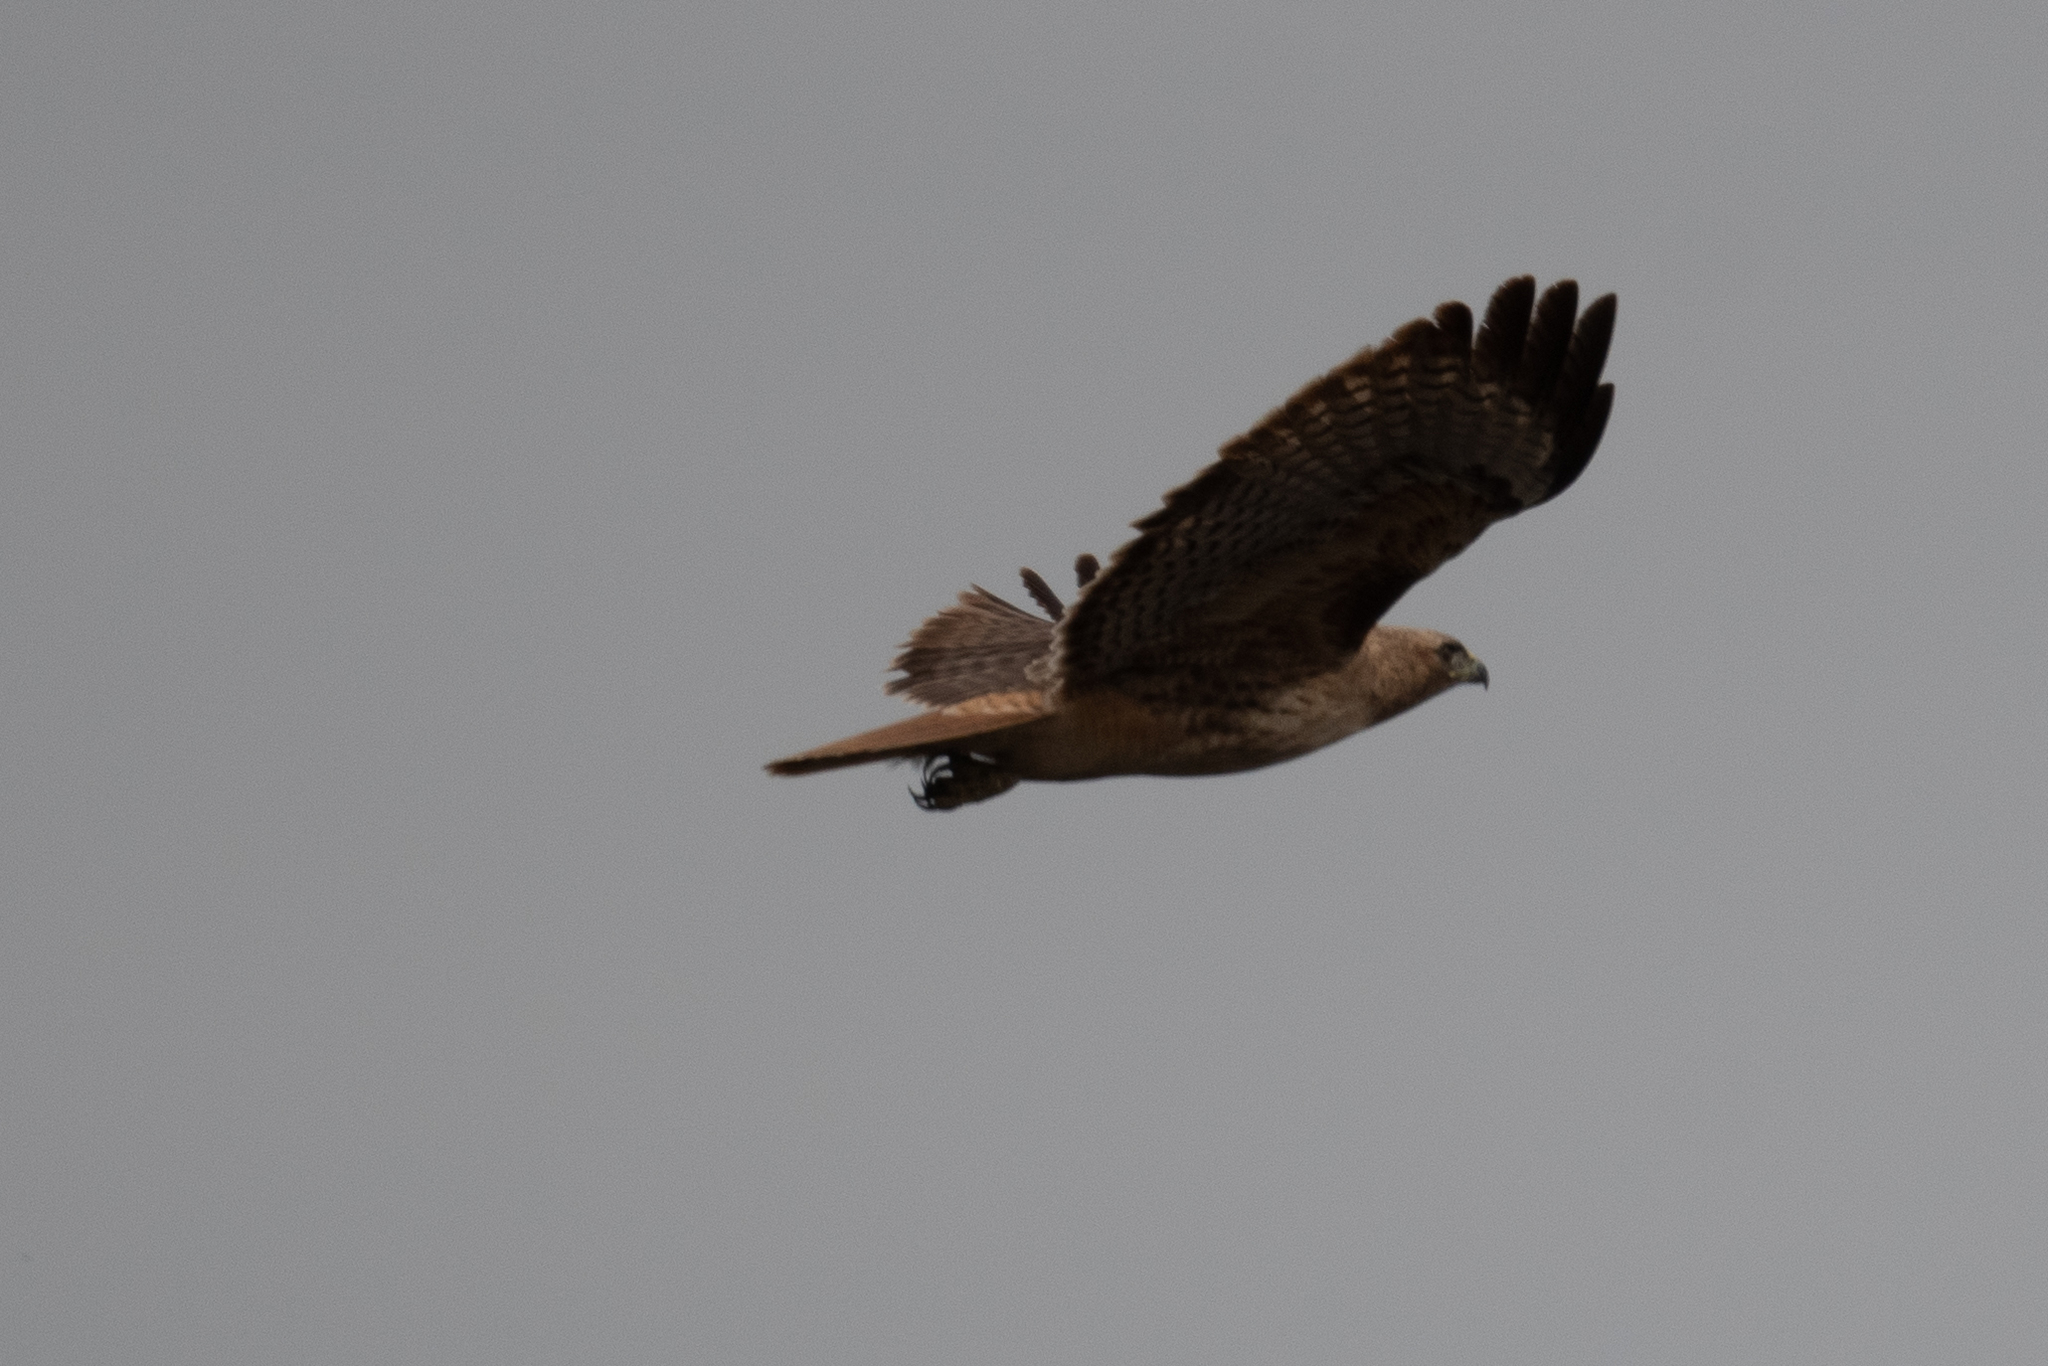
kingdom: Animalia
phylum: Chordata
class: Aves
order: Accipitriformes
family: Accipitridae
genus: Buteo
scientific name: Buteo jamaicensis
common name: Red-tailed hawk
